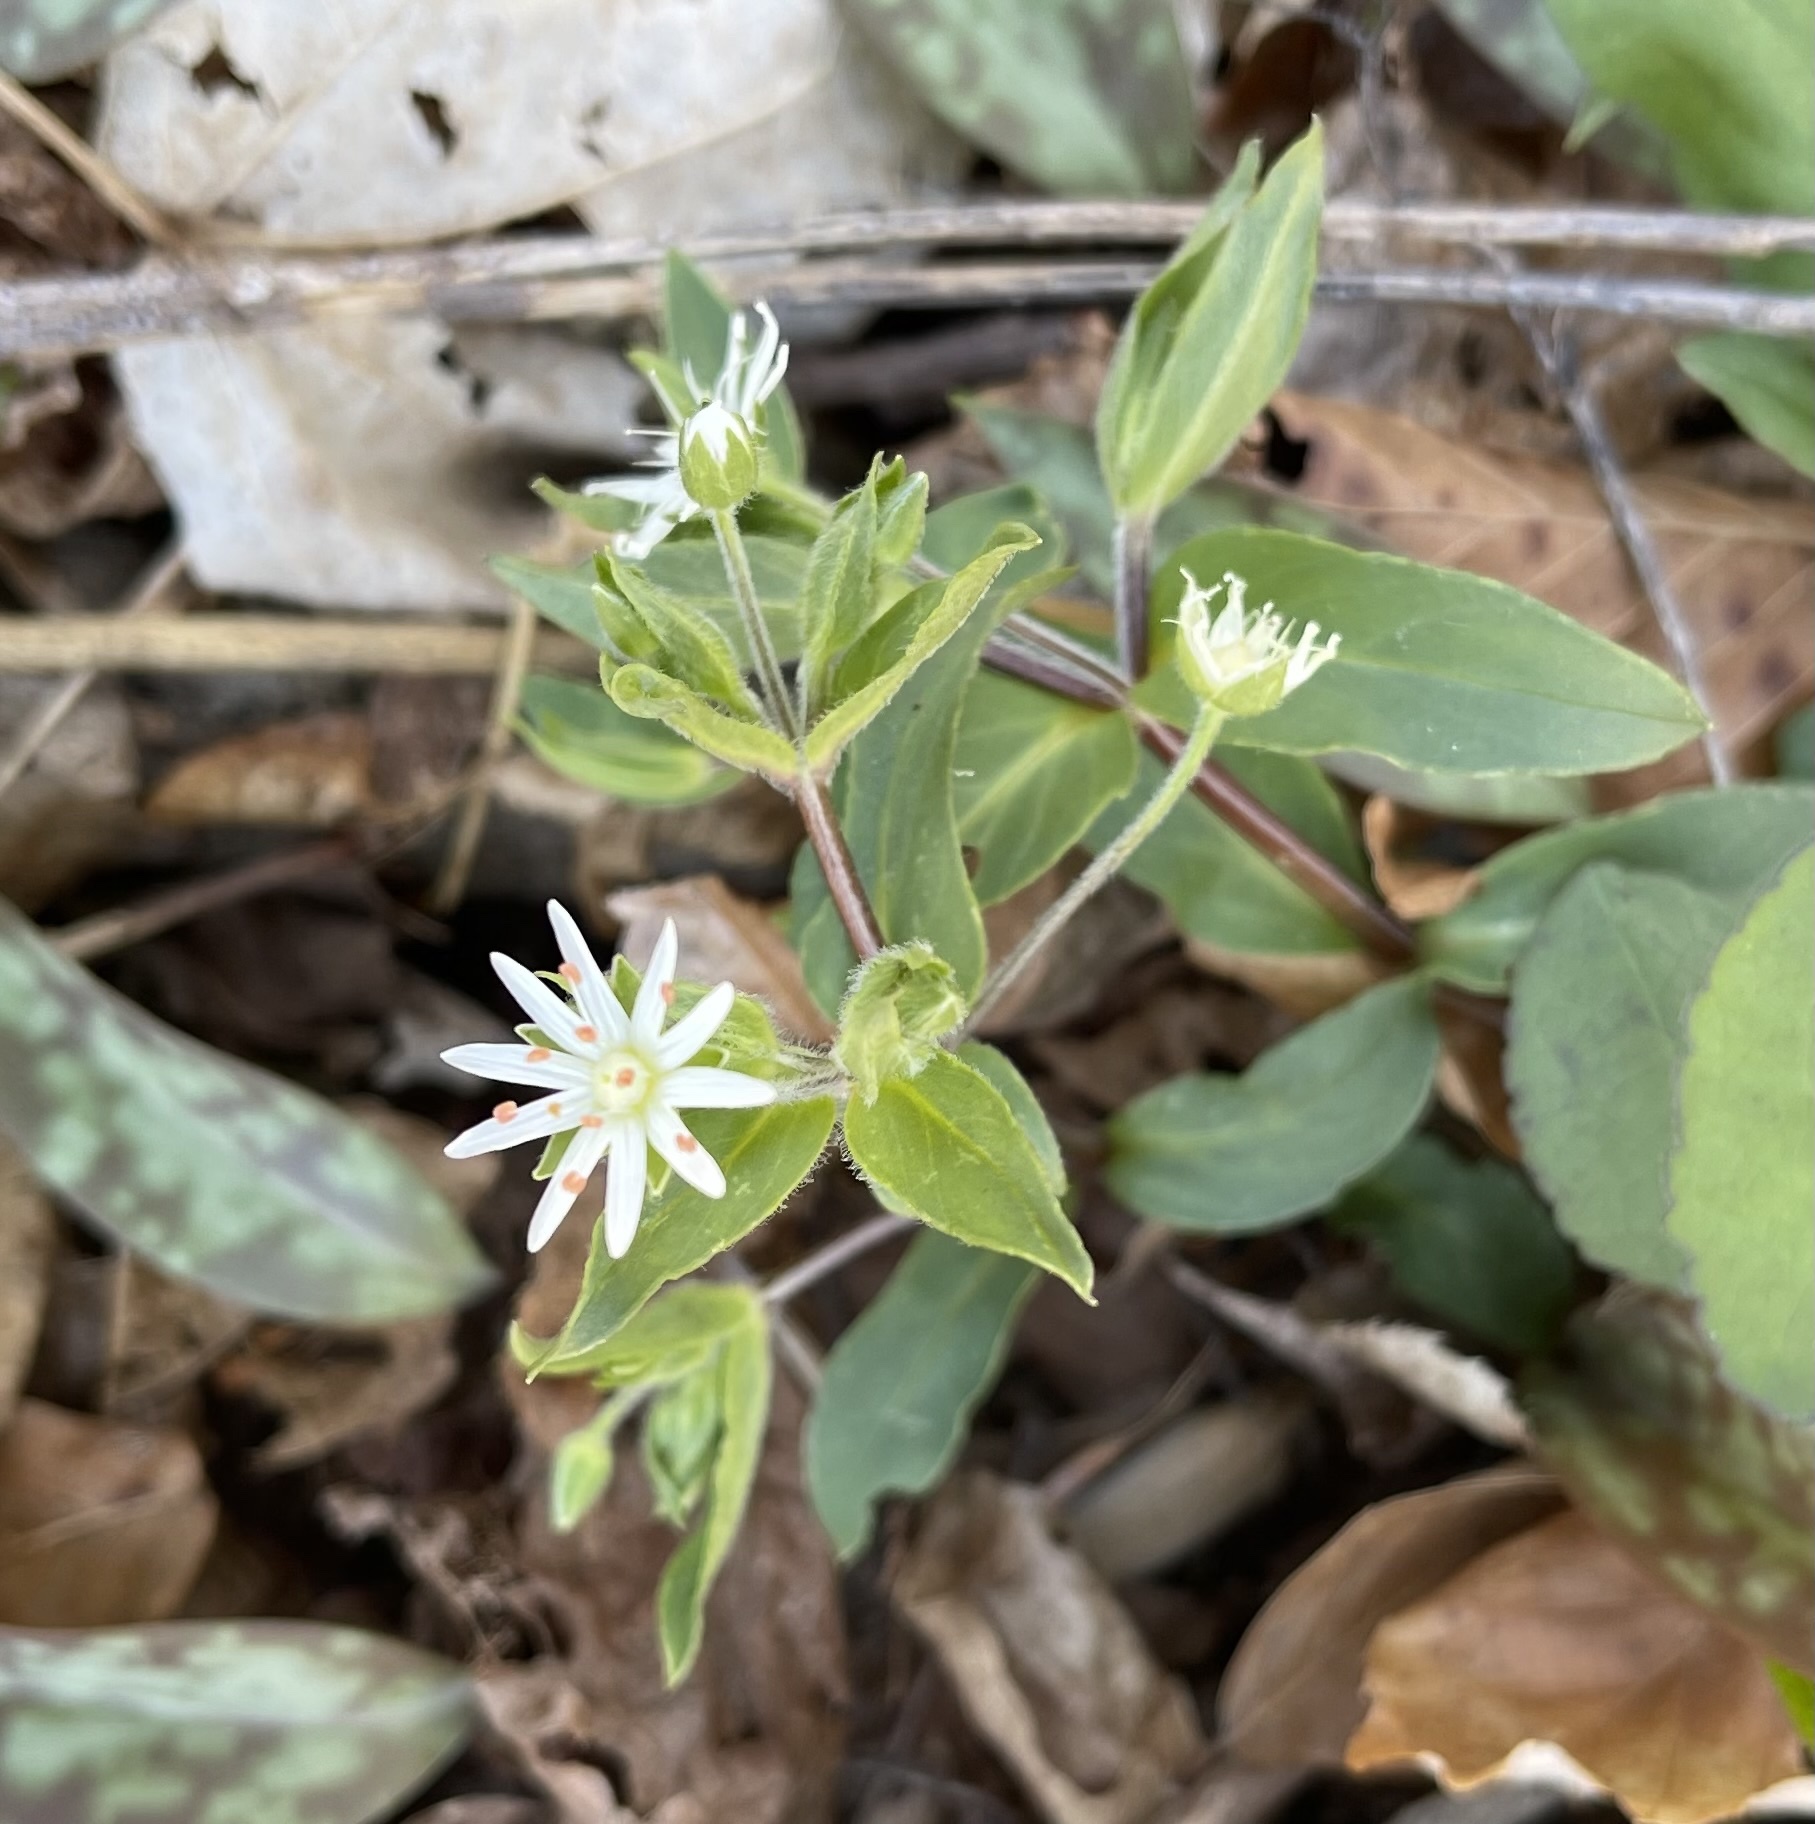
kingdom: Plantae
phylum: Tracheophyta
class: Magnoliopsida
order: Caryophyllales
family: Caryophyllaceae
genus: Stellaria
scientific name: Stellaria pubera
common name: Star chickweed
